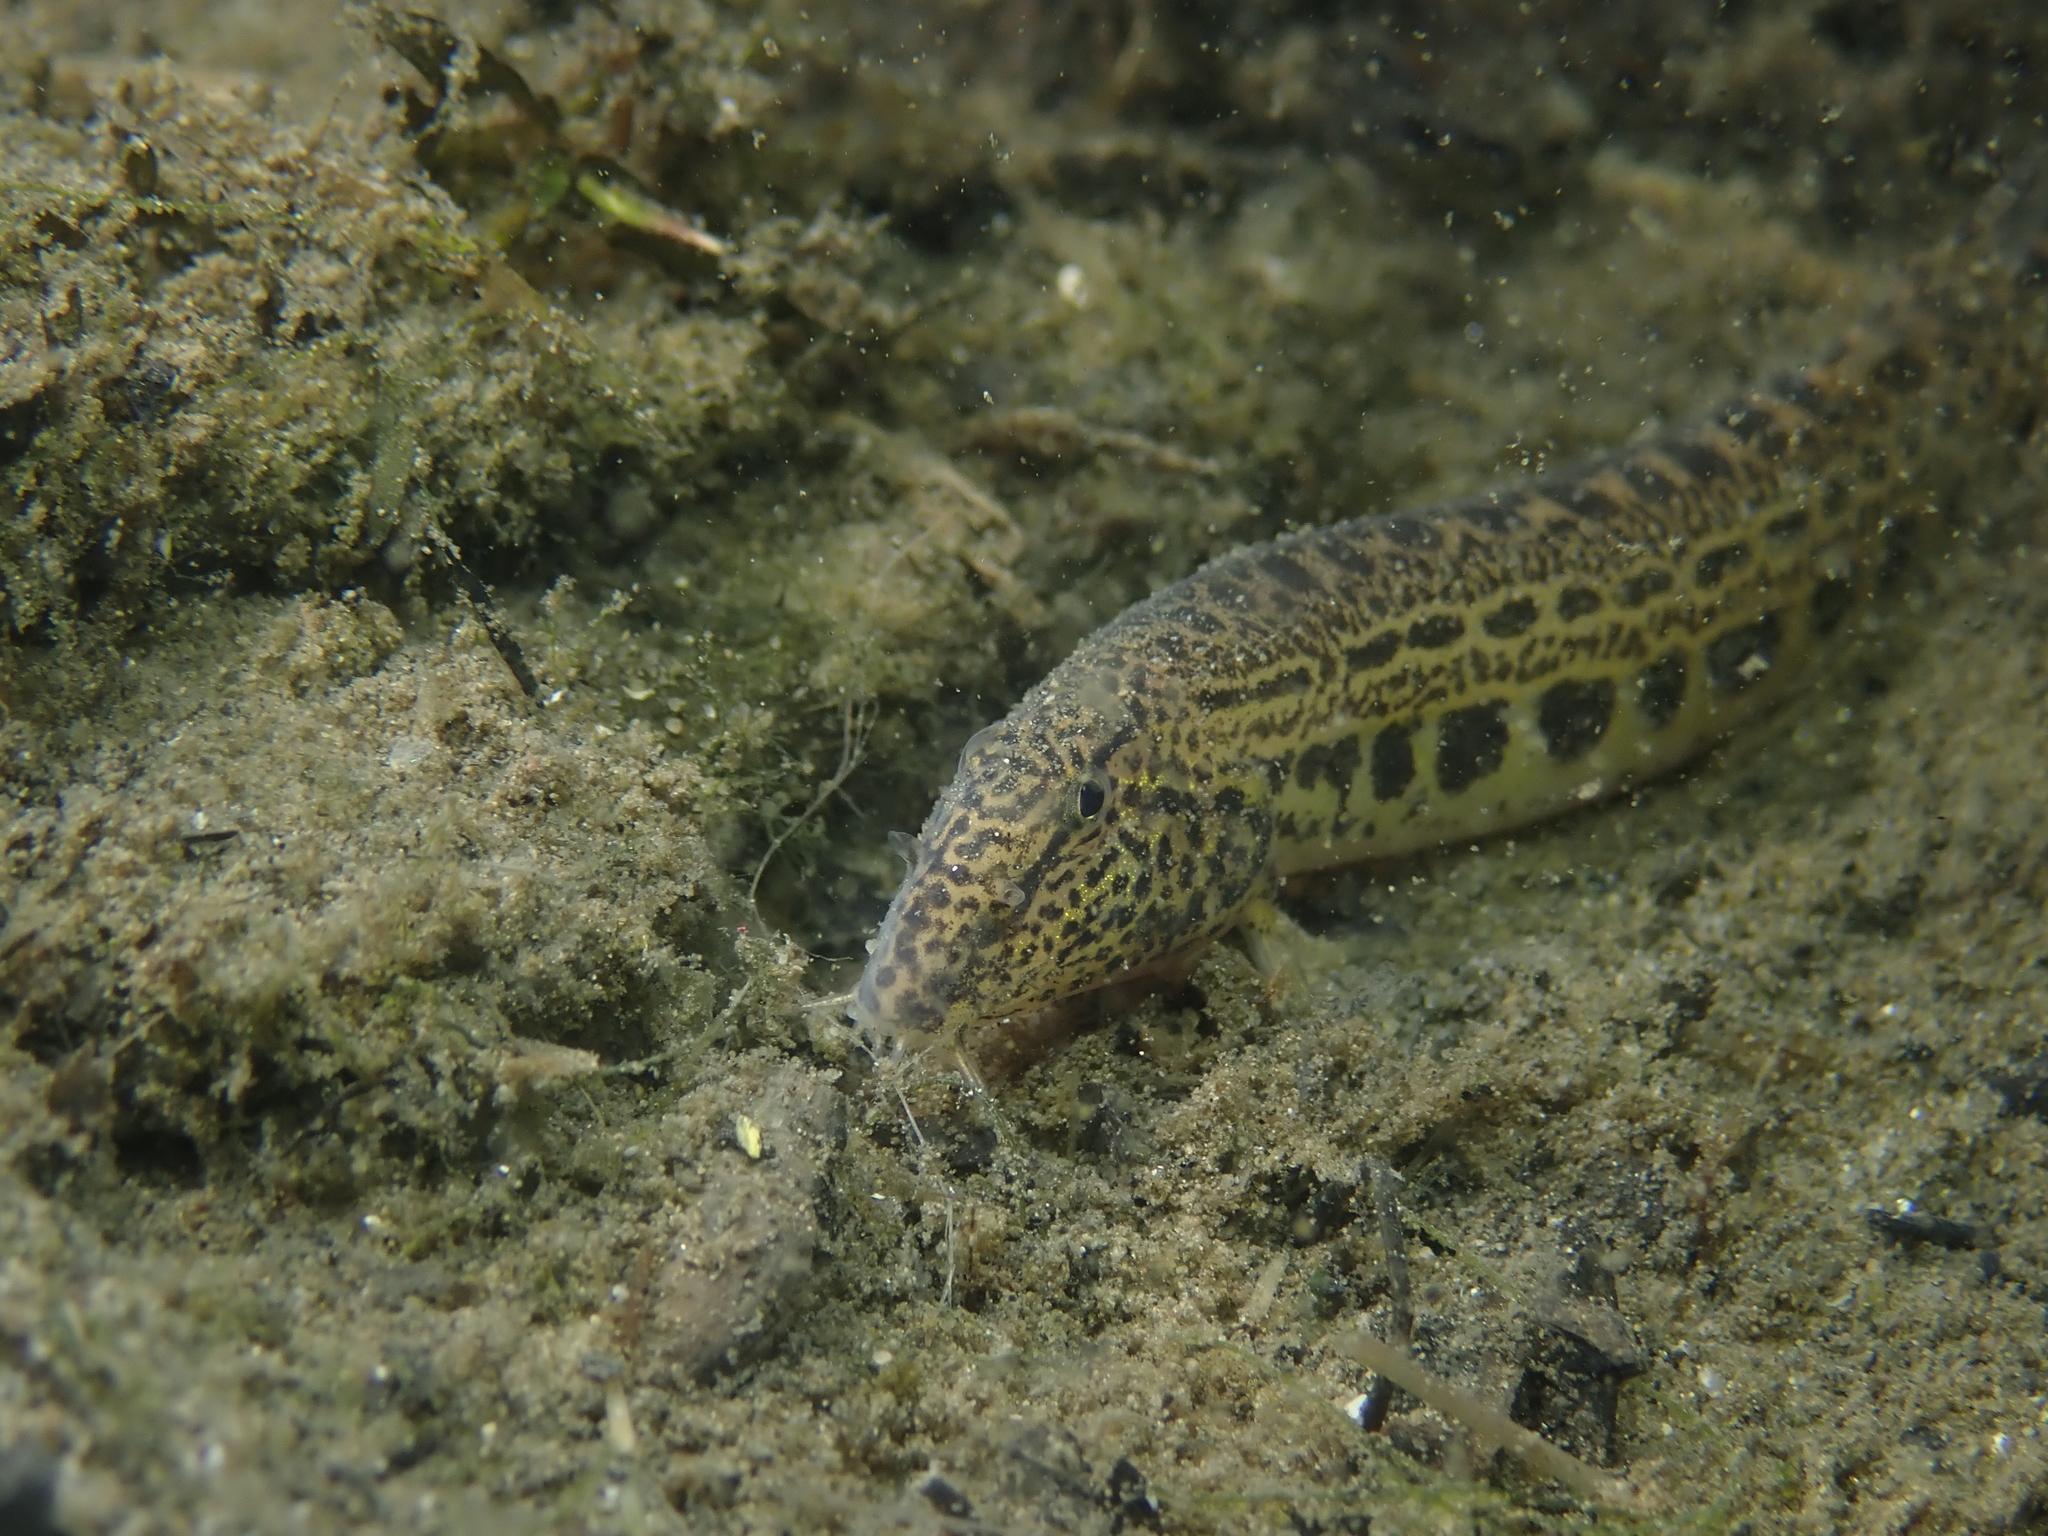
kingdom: Animalia
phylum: Chordata
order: Cypriniformes
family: Cobitidae
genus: Cobitis
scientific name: Cobitis taenia
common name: Spined loach
